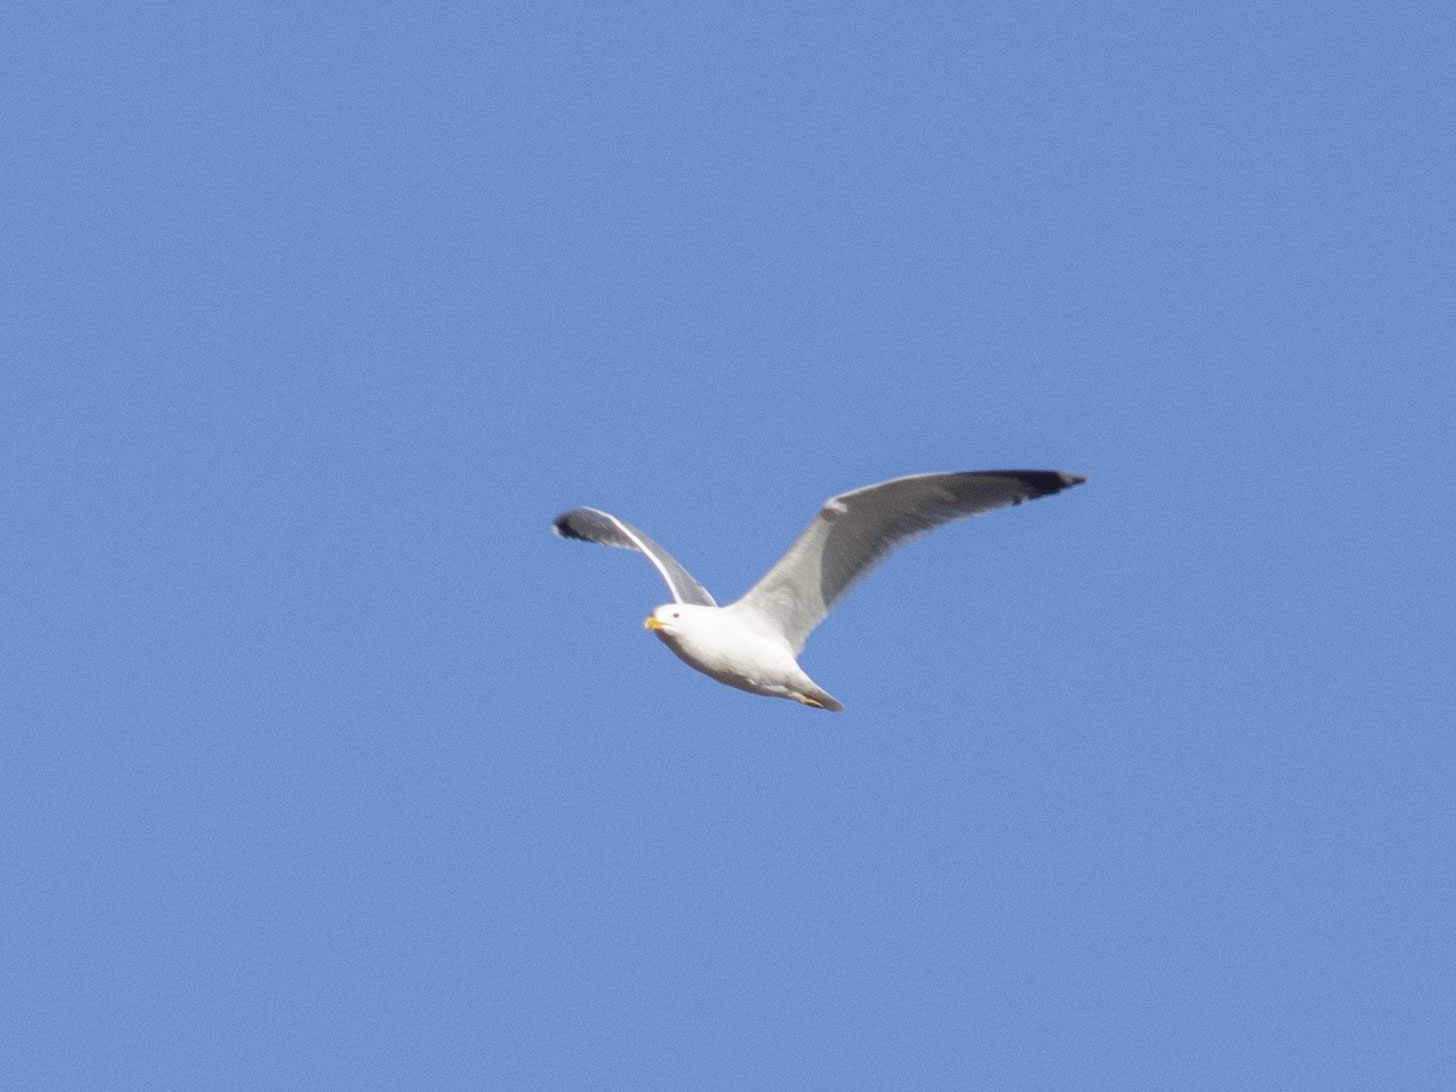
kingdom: Animalia
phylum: Chordata
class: Aves
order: Charadriiformes
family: Laridae
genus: Larus
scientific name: Larus argentatus
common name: Herring gull
